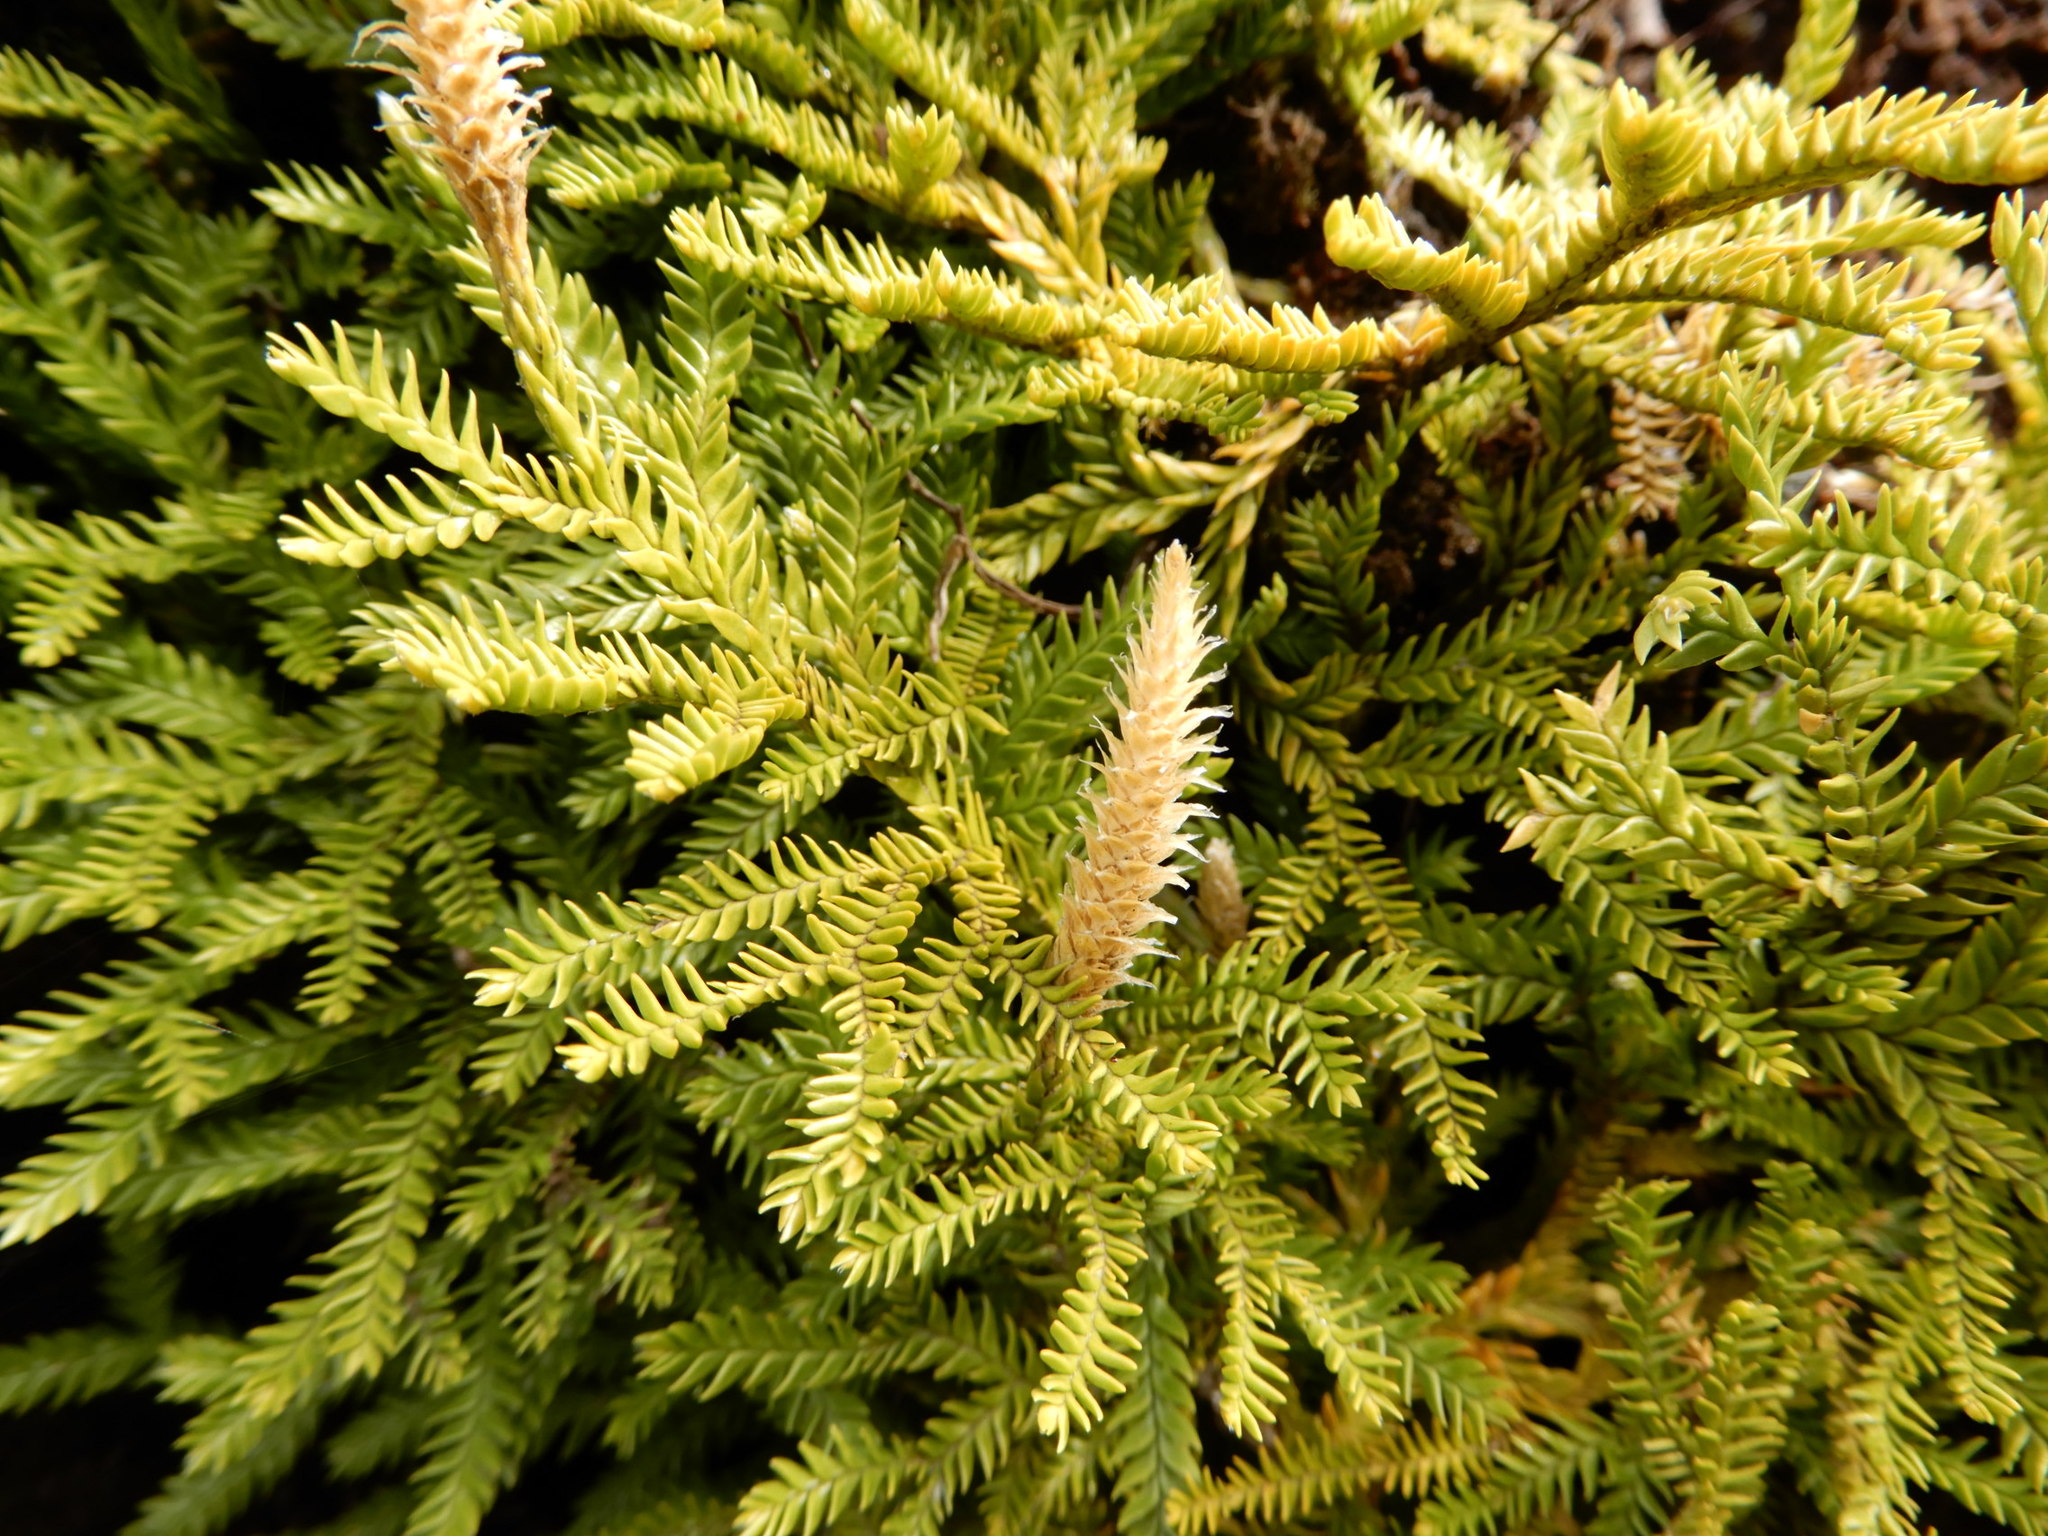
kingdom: Plantae
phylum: Tracheophyta
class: Lycopodiopsida
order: Lycopodiales
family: Lycopodiaceae
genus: Diphasium
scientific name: Diphasium scariosum
